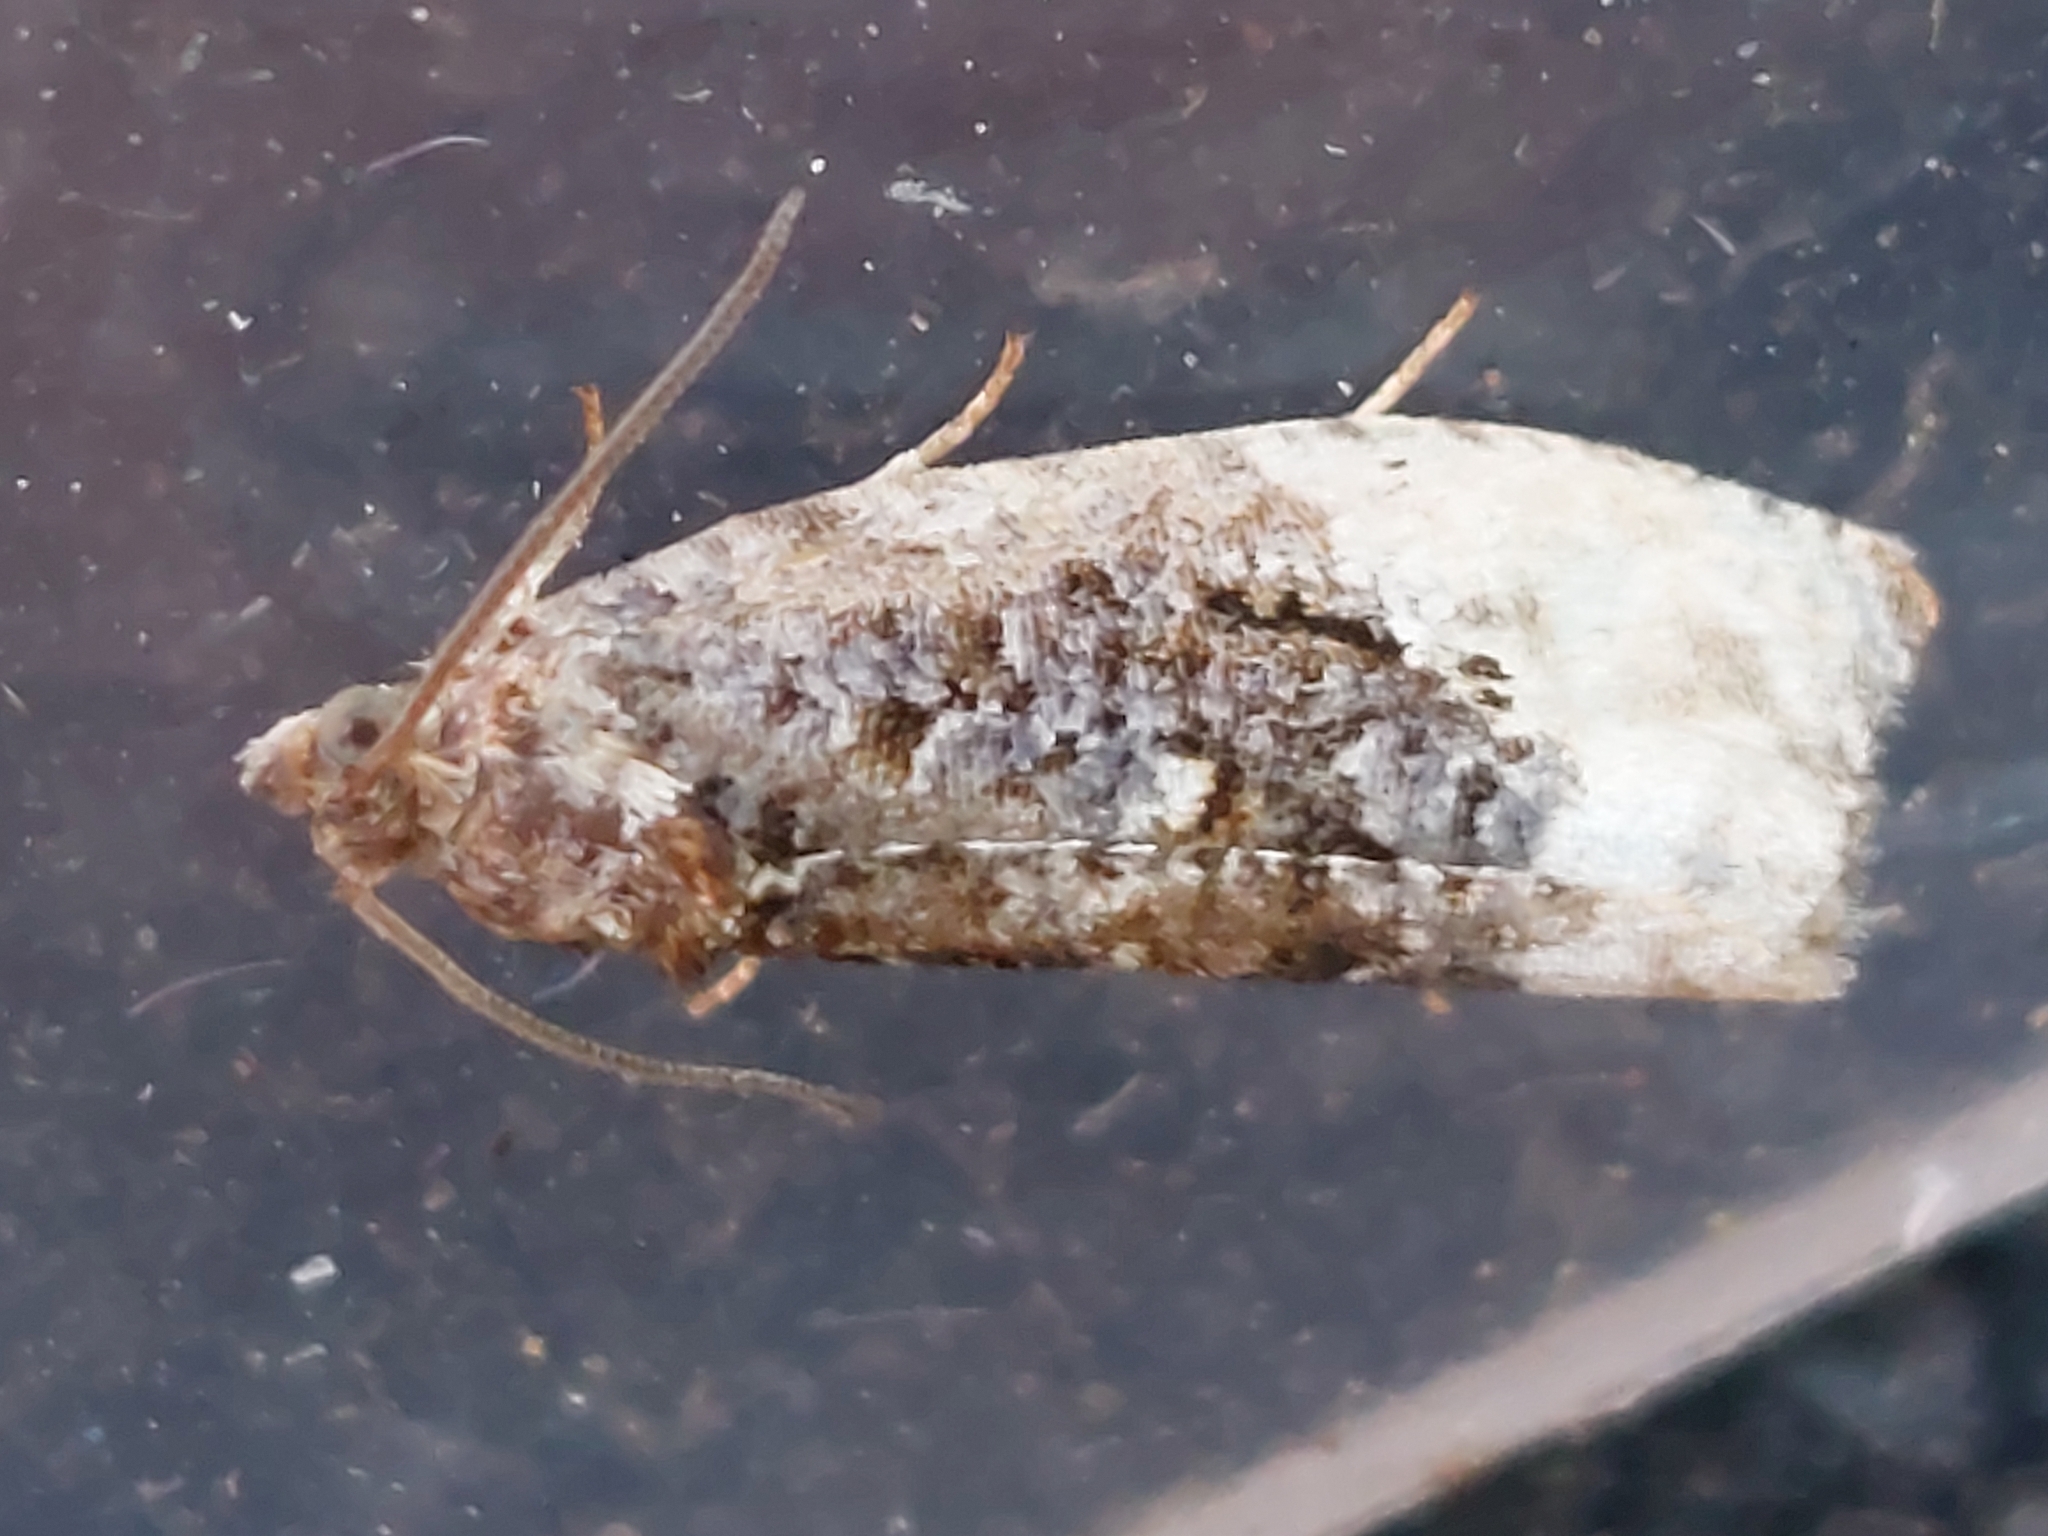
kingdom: Animalia
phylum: Arthropoda
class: Insecta
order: Lepidoptera
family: Tortricidae
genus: Hedya
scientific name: Hedya nubiferana
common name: Marbled orchard tortrix
